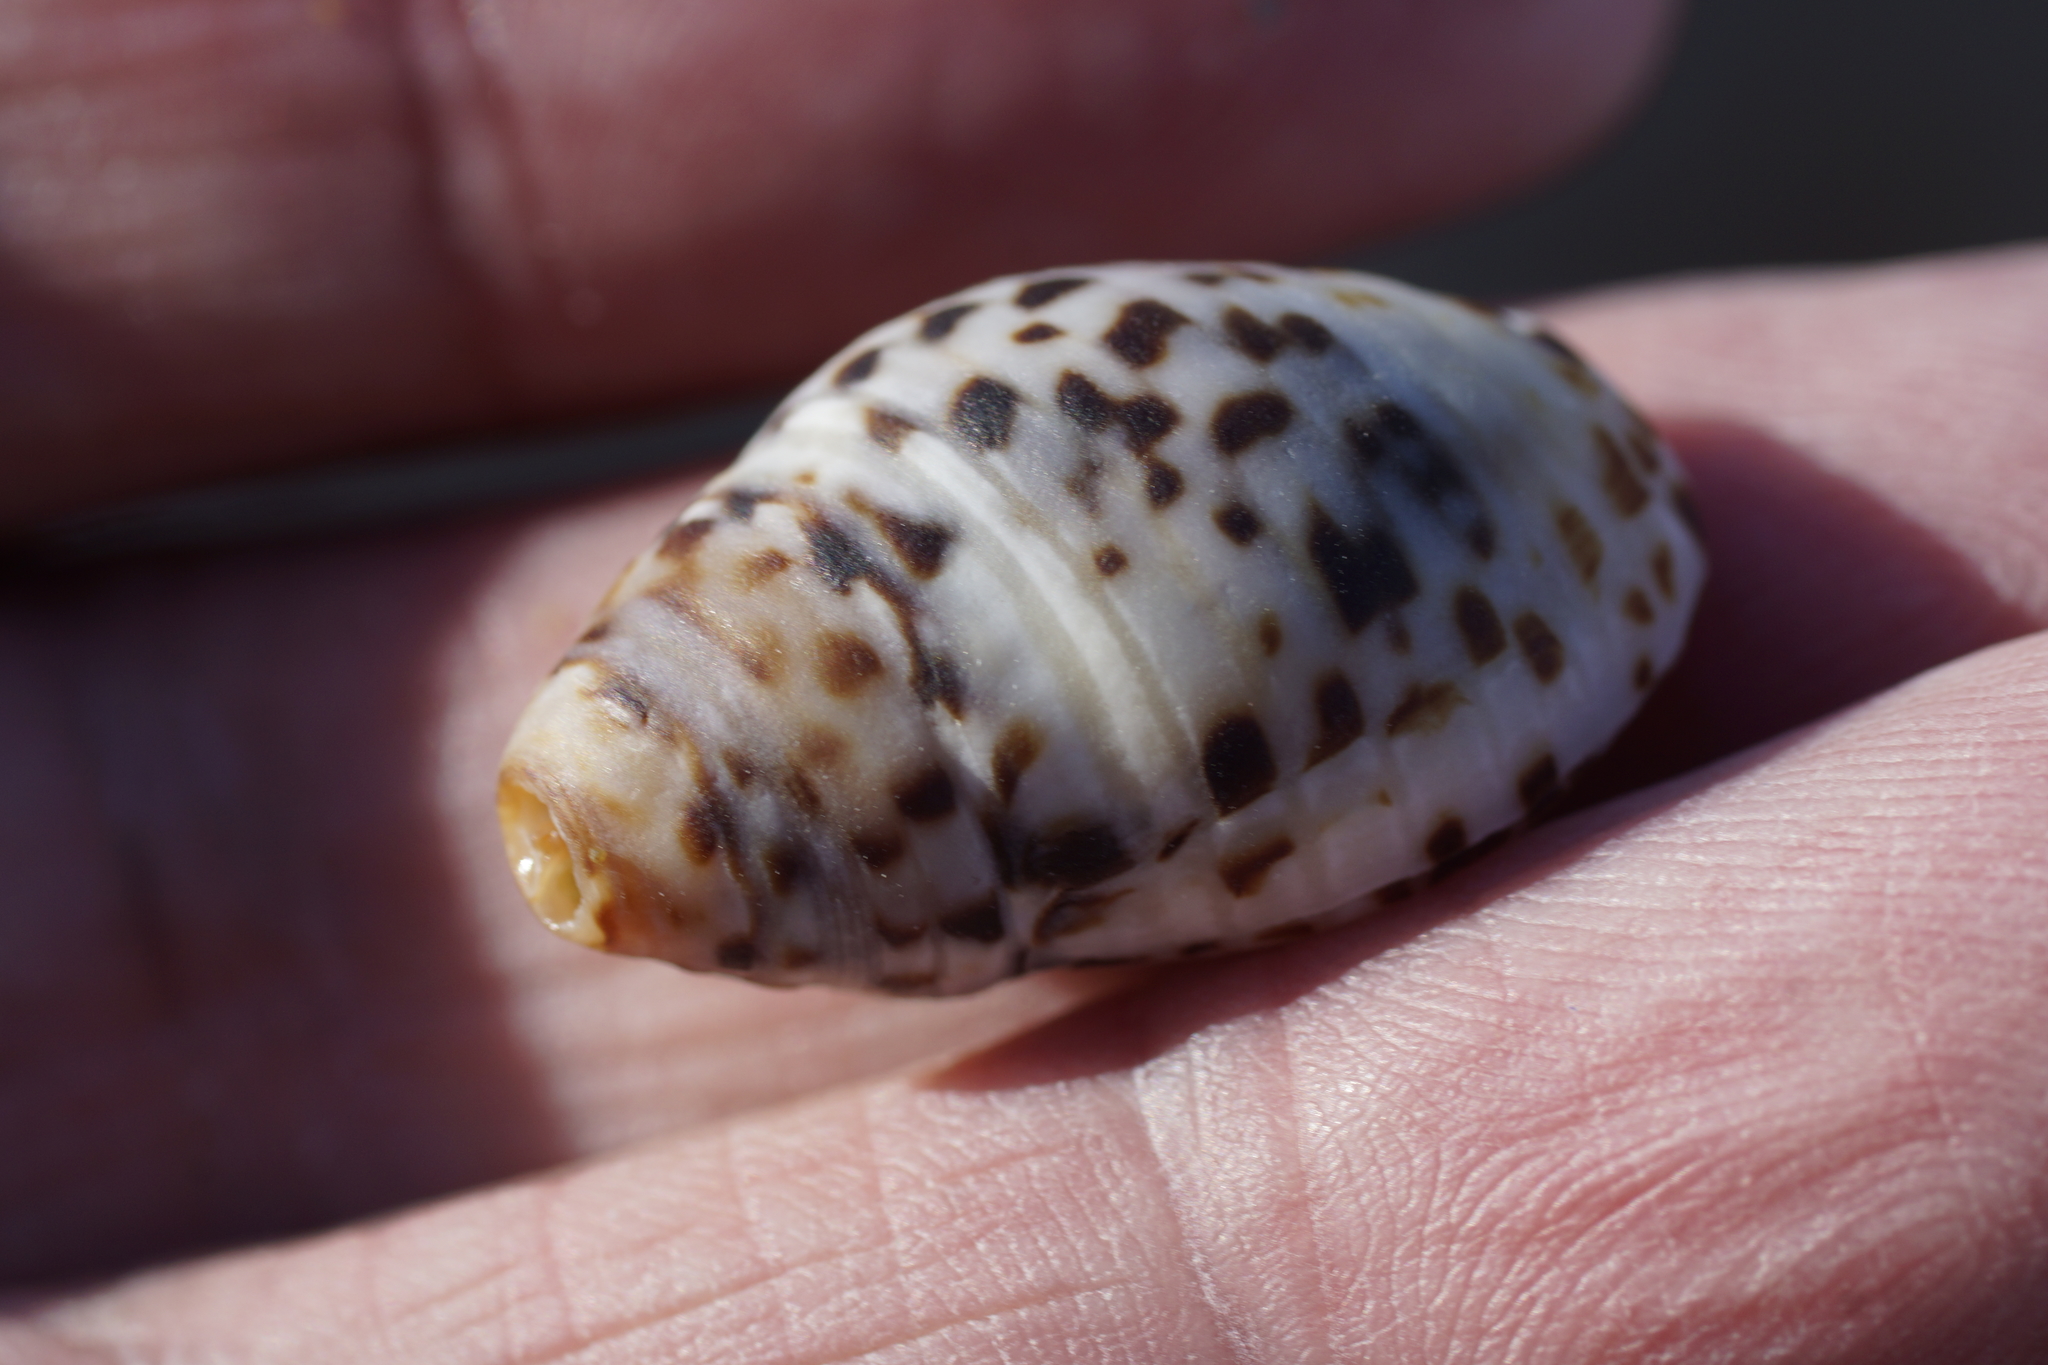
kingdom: Animalia
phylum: Mollusca
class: Gastropoda
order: Neogastropoda
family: Cominellidae
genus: Cominella
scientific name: Cominella lineolata
